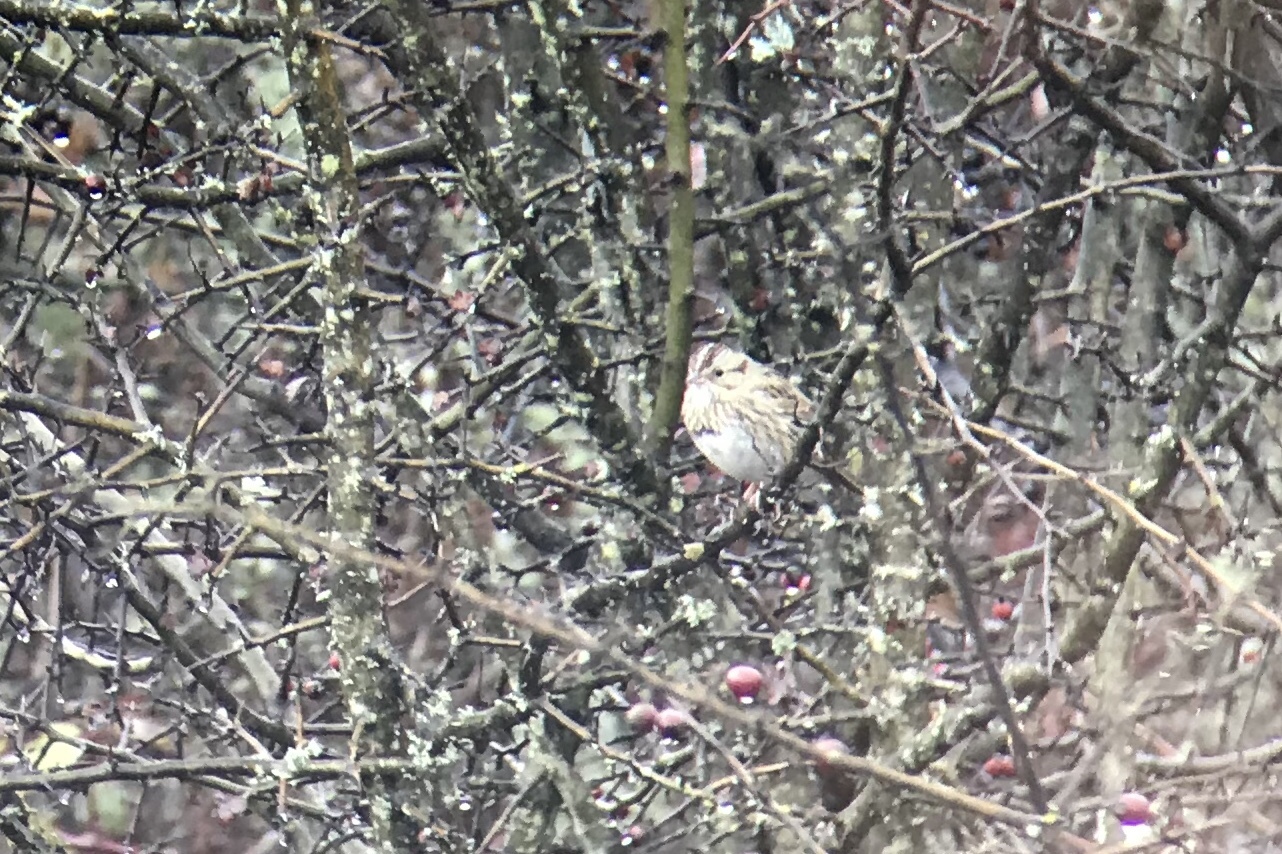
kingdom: Animalia
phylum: Chordata
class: Aves
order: Passeriformes
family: Passerellidae
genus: Melospiza
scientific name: Melospiza lincolnii
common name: Lincoln's sparrow
